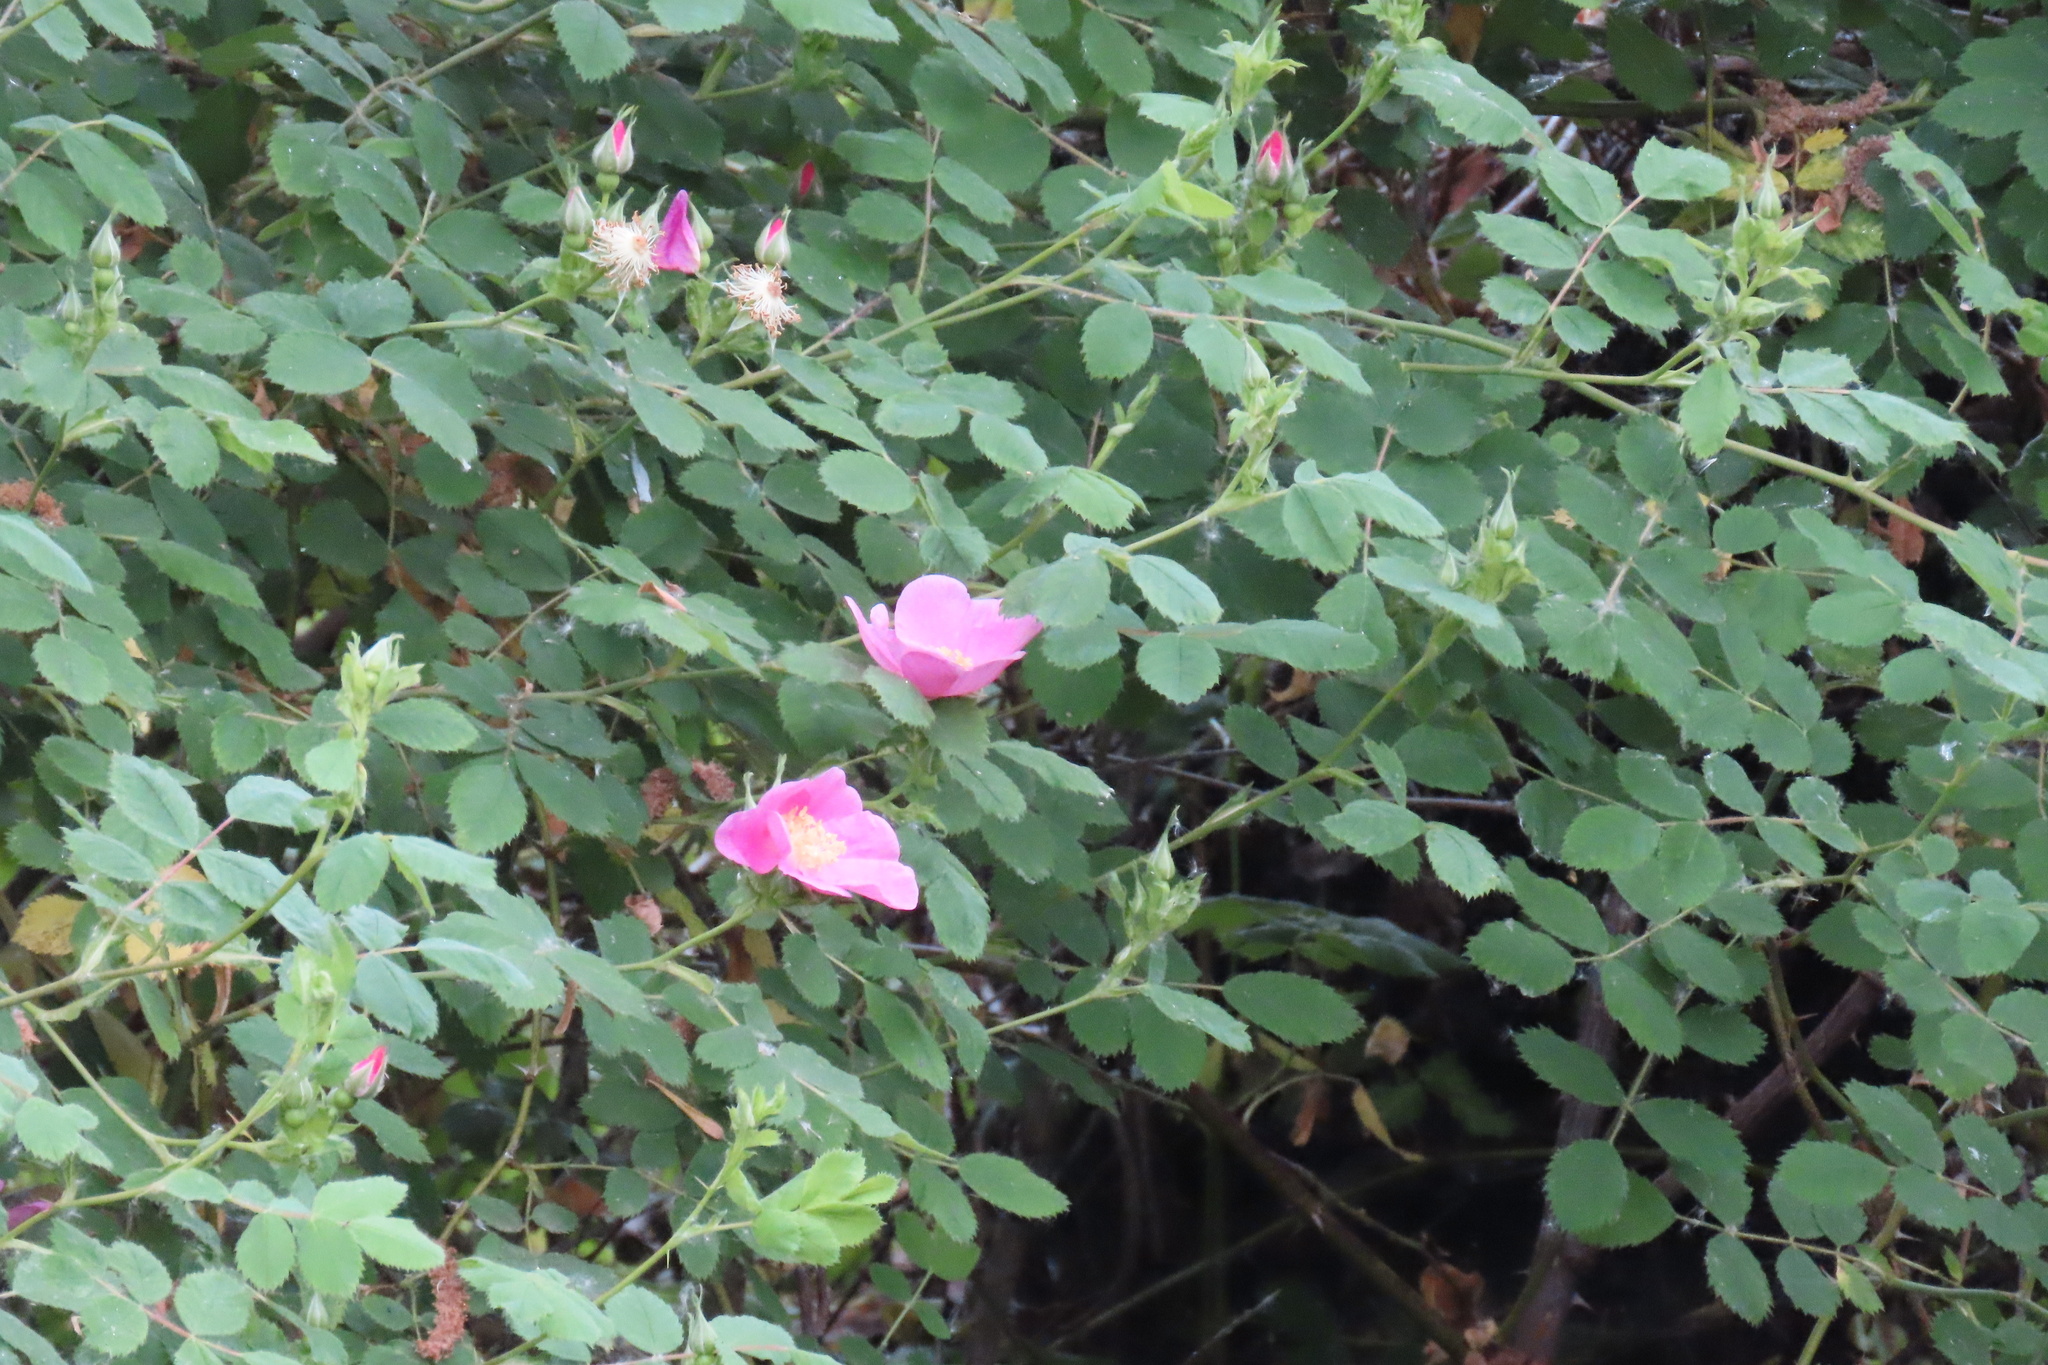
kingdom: Plantae
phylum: Tracheophyta
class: Magnoliopsida
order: Rosales
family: Rosaceae
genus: Rosa
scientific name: Rosa californica
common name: California rose
